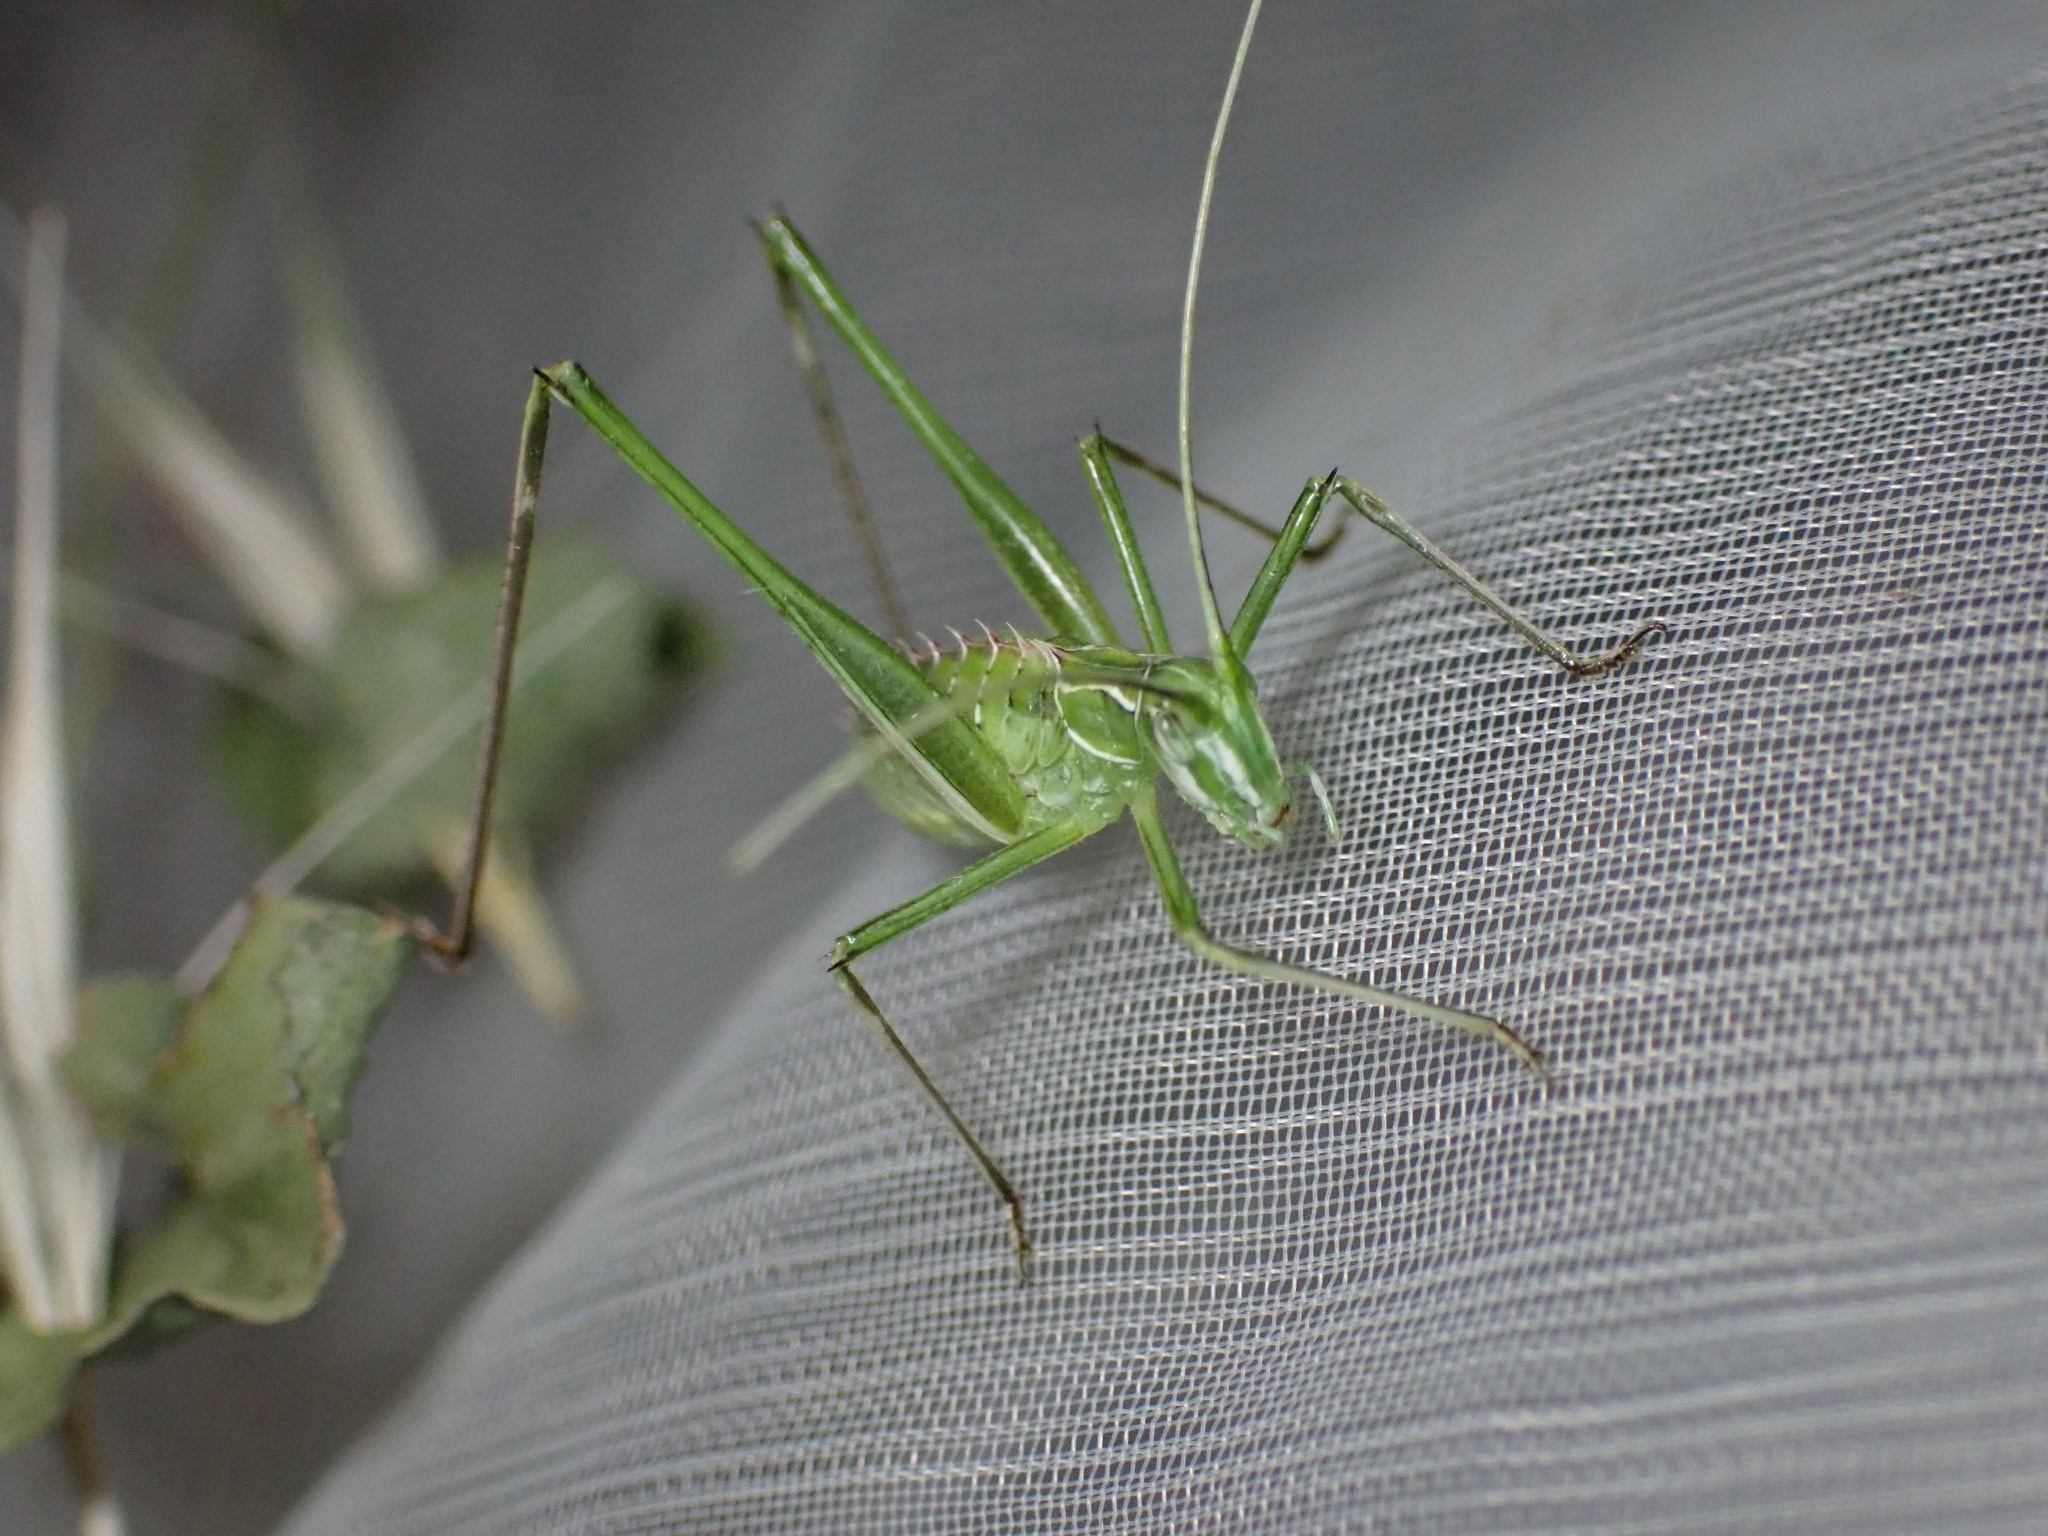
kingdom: Animalia
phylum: Arthropoda
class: Insecta
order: Orthoptera
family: Tettigoniidae
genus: Tylopsis
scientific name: Tylopsis lilifolia
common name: Lily bush-cricket
